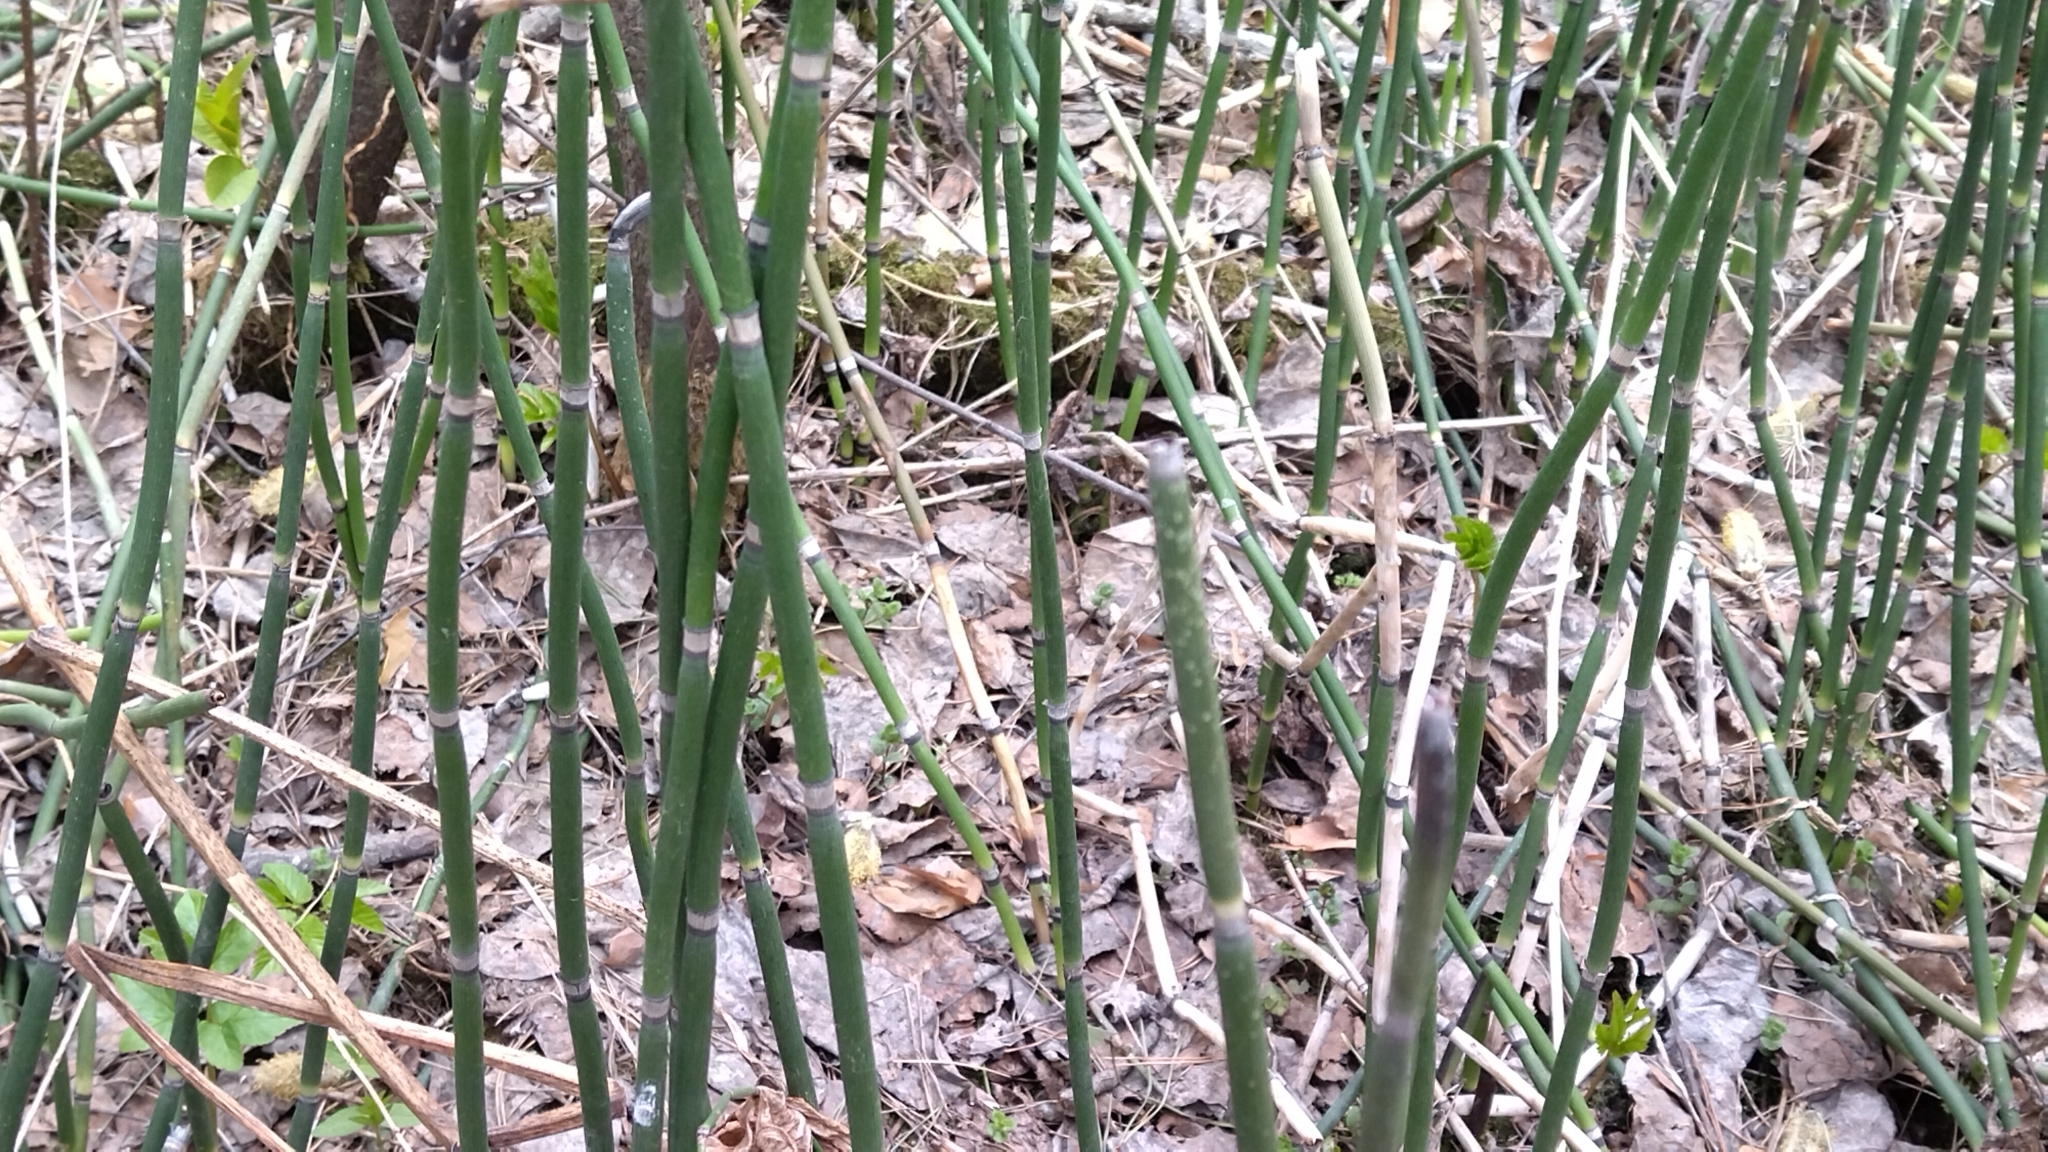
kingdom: Plantae
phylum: Tracheophyta
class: Polypodiopsida
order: Equisetales
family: Equisetaceae
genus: Equisetum
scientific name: Equisetum hyemale
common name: Rough horsetail
